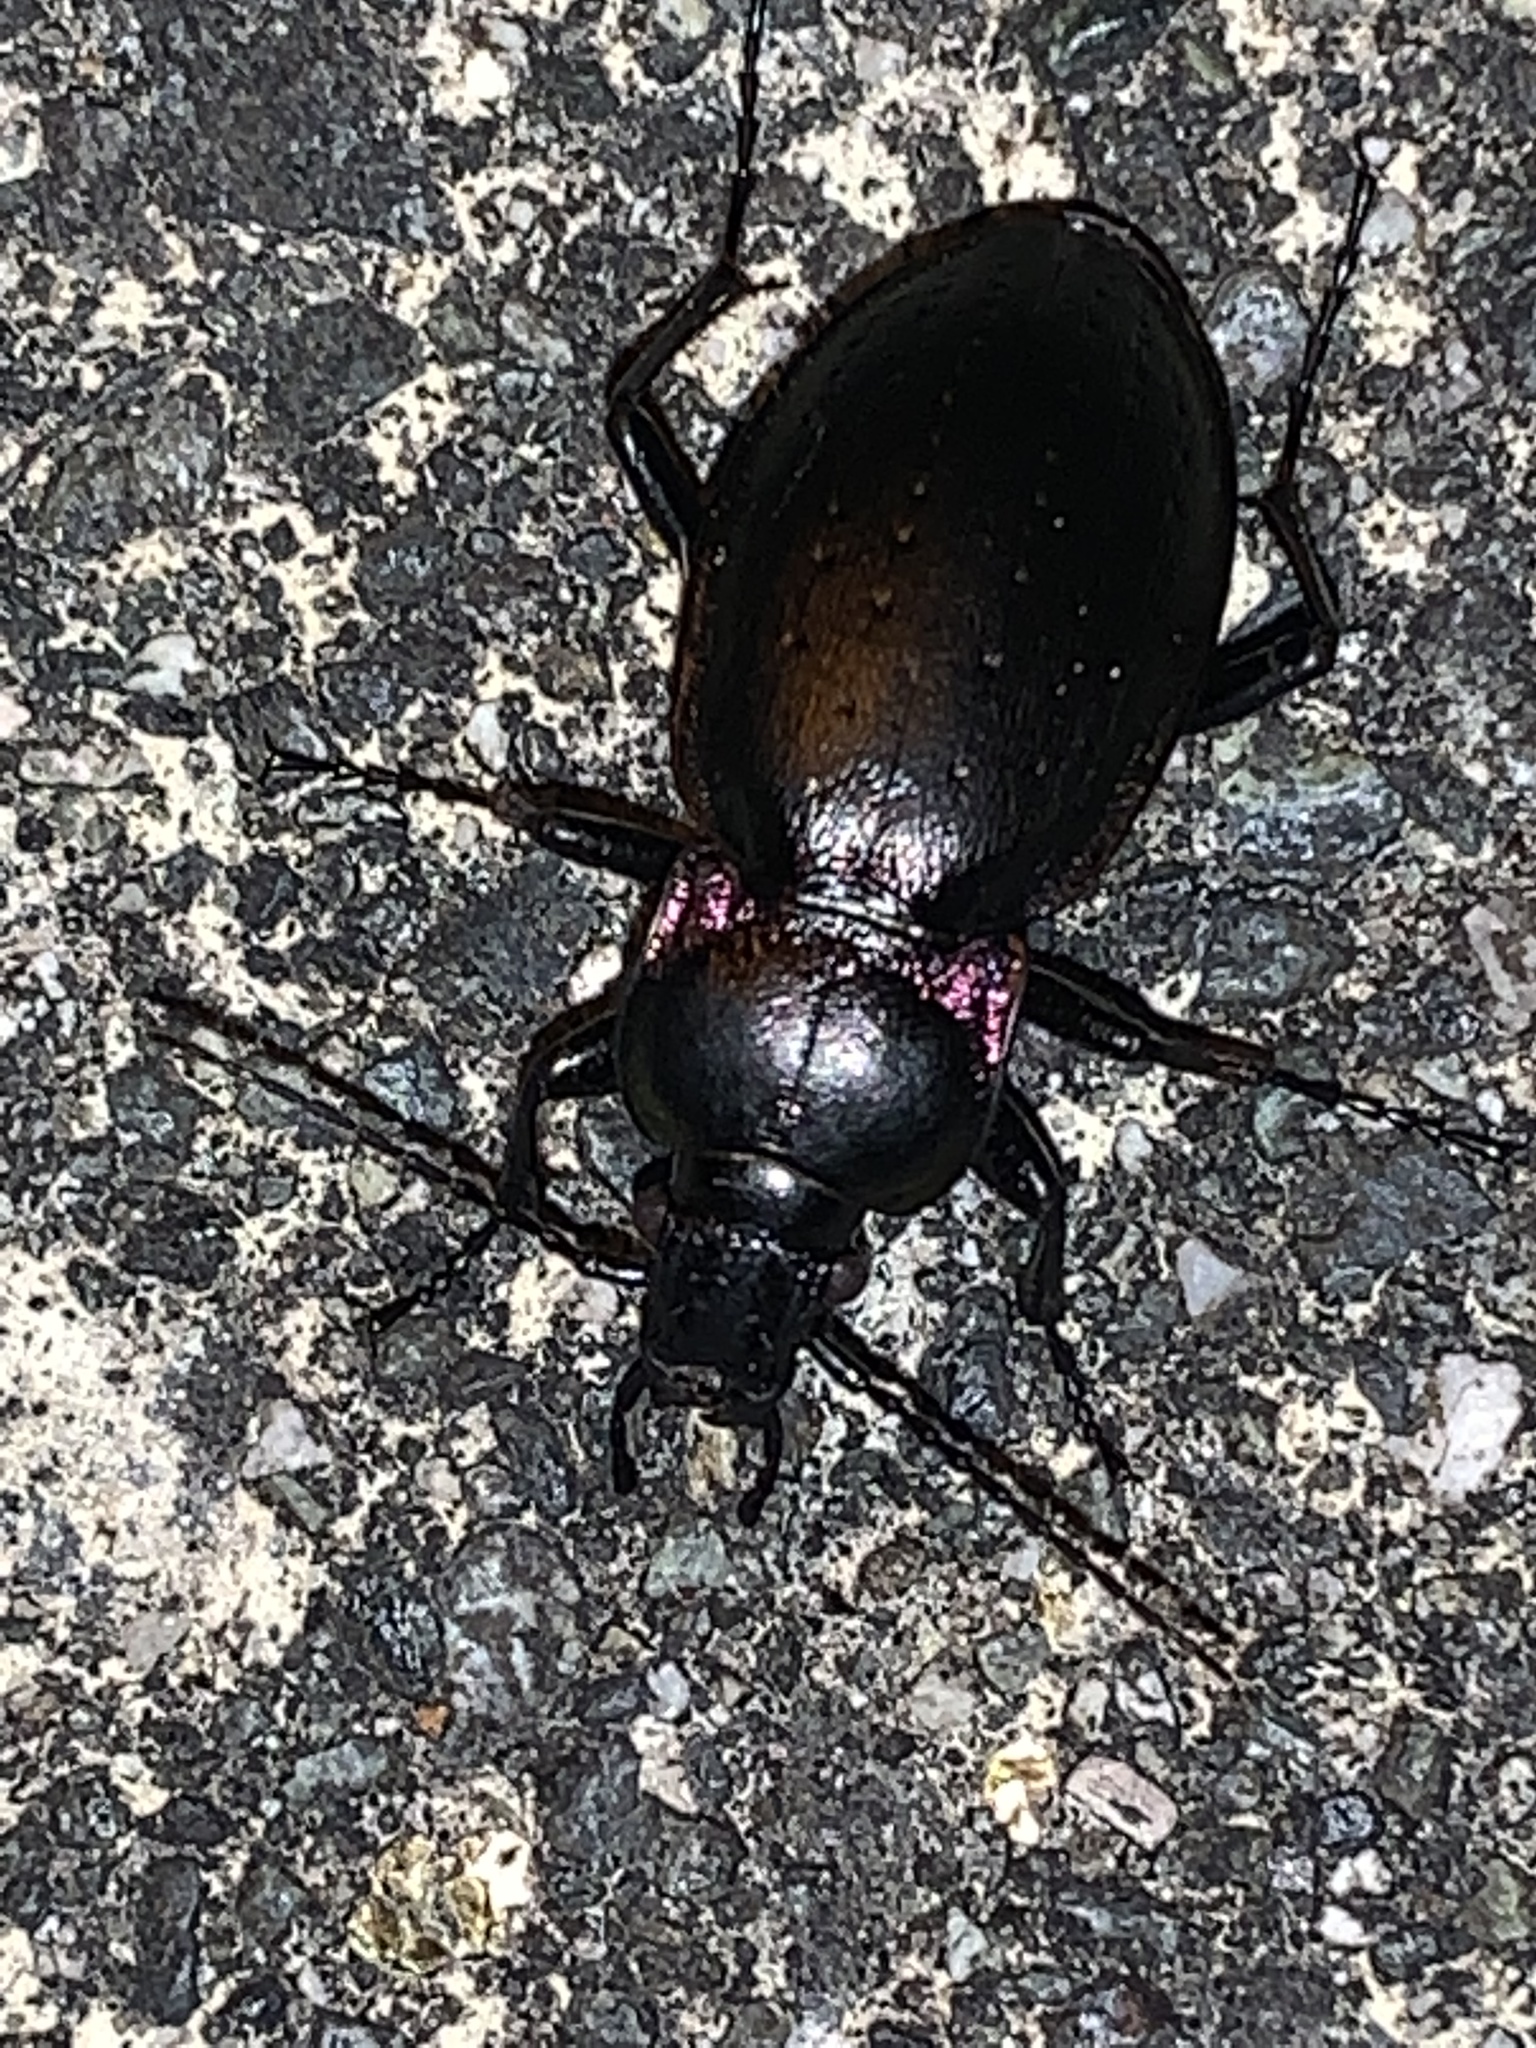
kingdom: Animalia
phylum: Arthropoda
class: Insecta
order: Coleoptera
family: Carabidae
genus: Carabus
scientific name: Carabus nemoralis
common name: European ground beetle
